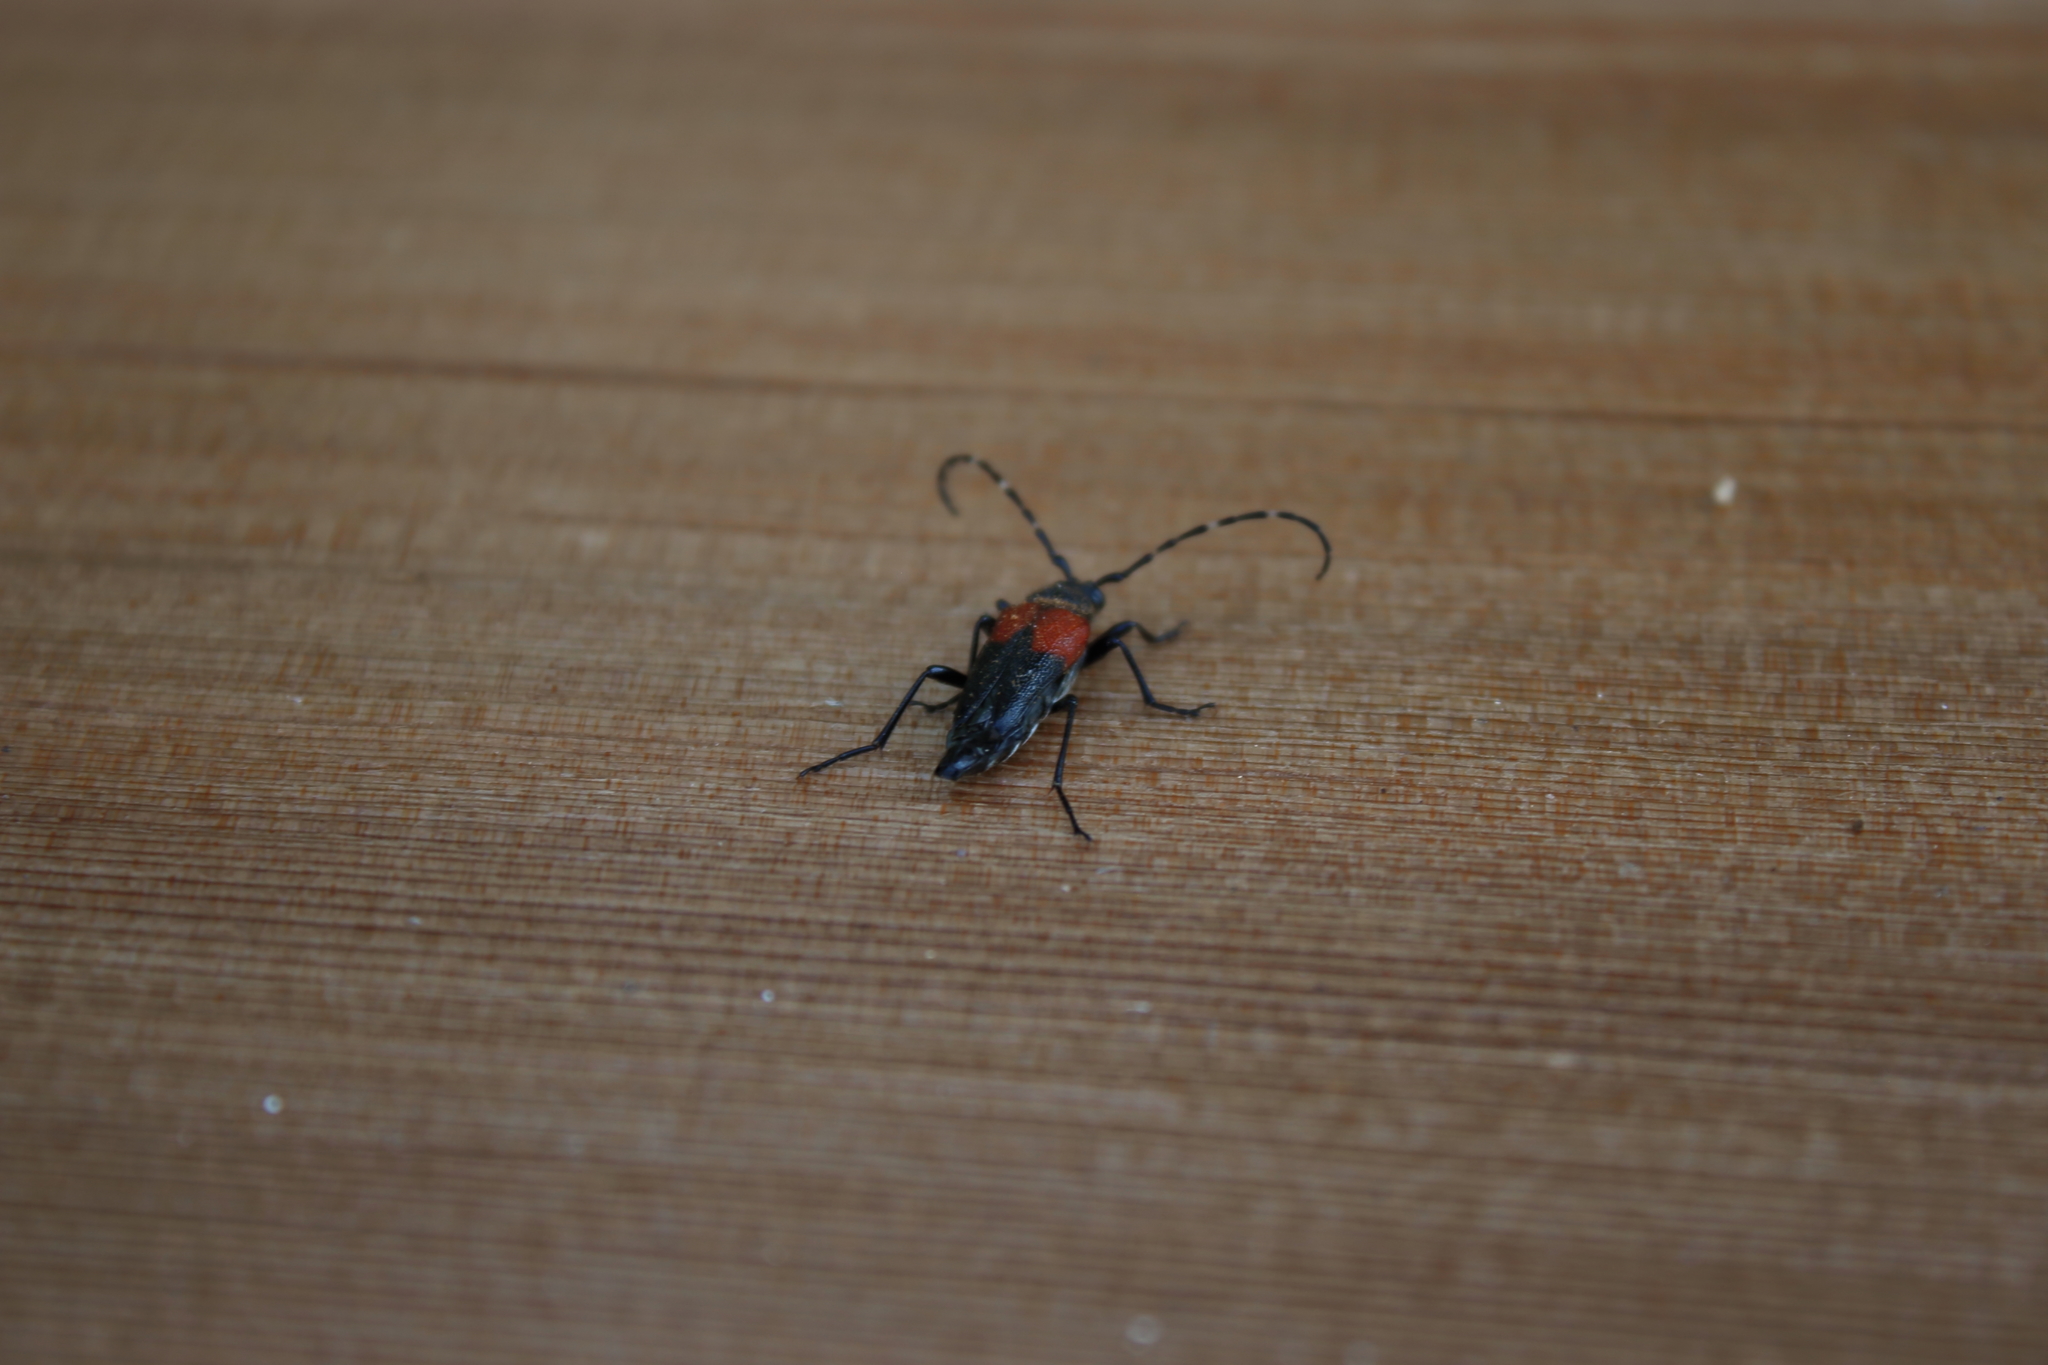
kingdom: Animalia
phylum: Arthropoda
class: Insecta
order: Coleoptera
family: Cerambycidae
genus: Stictoleptura
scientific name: Stictoleptura canadensis
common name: Red-shouldered pine borer
